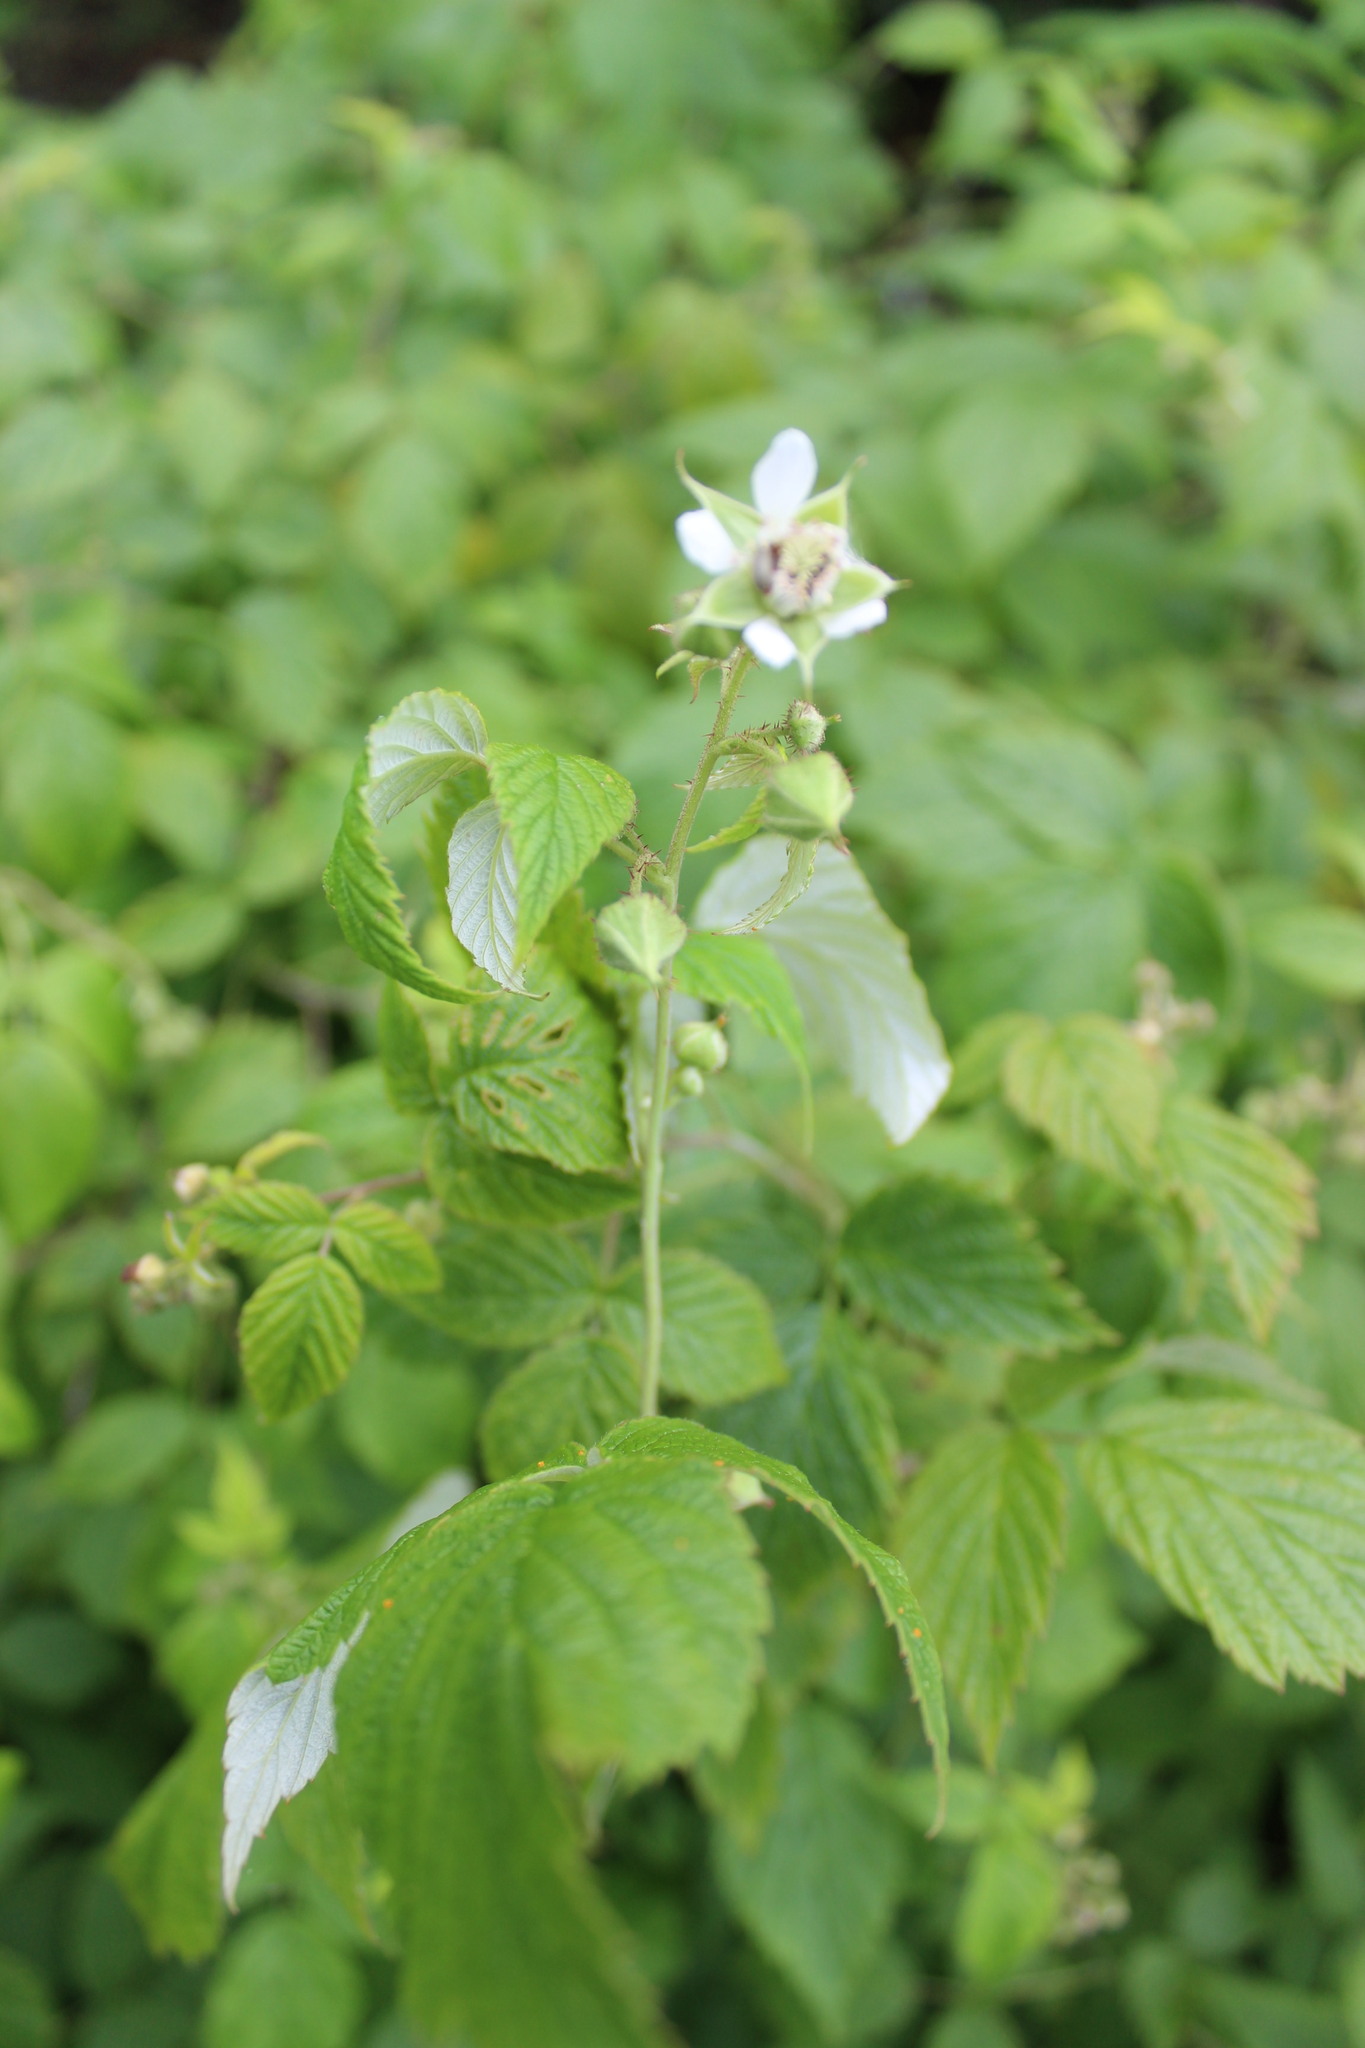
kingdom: Plantae
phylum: Tracheophyta
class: Magnoliopsida
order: Rosales
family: Rosaceae
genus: Rubus
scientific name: Rubus idaeus
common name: Raspberry
